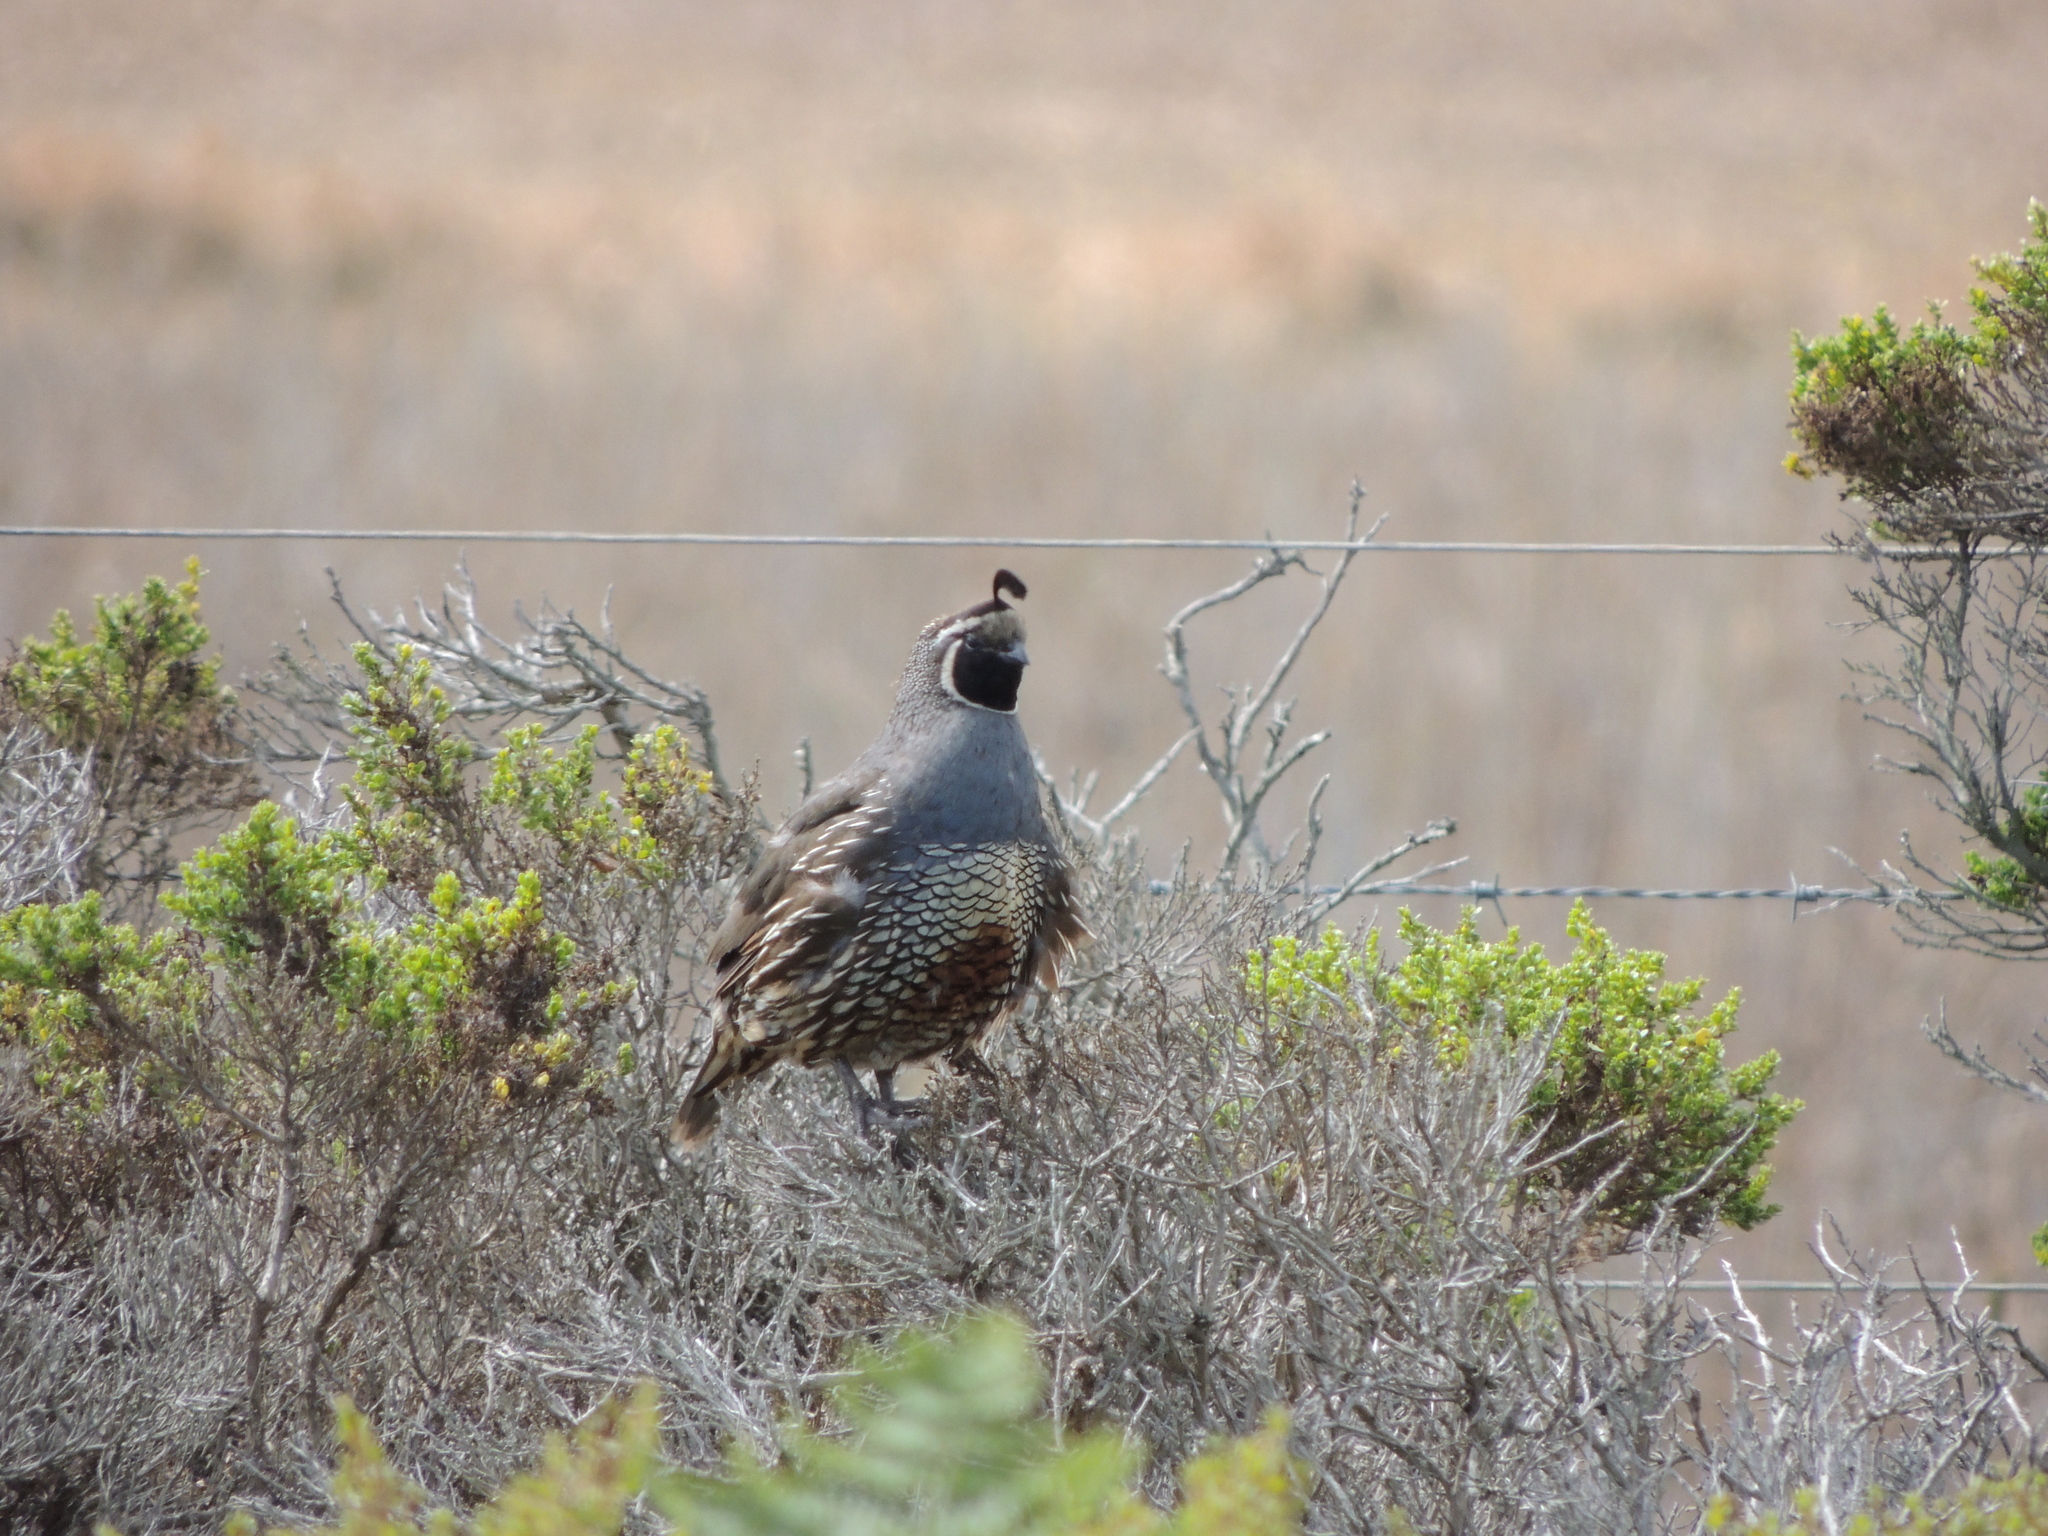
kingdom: Animalia
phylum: Chordata
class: Aves
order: Galliformes
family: Odontophoridae
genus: Callipepla
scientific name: Callipepla californica
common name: California quail
